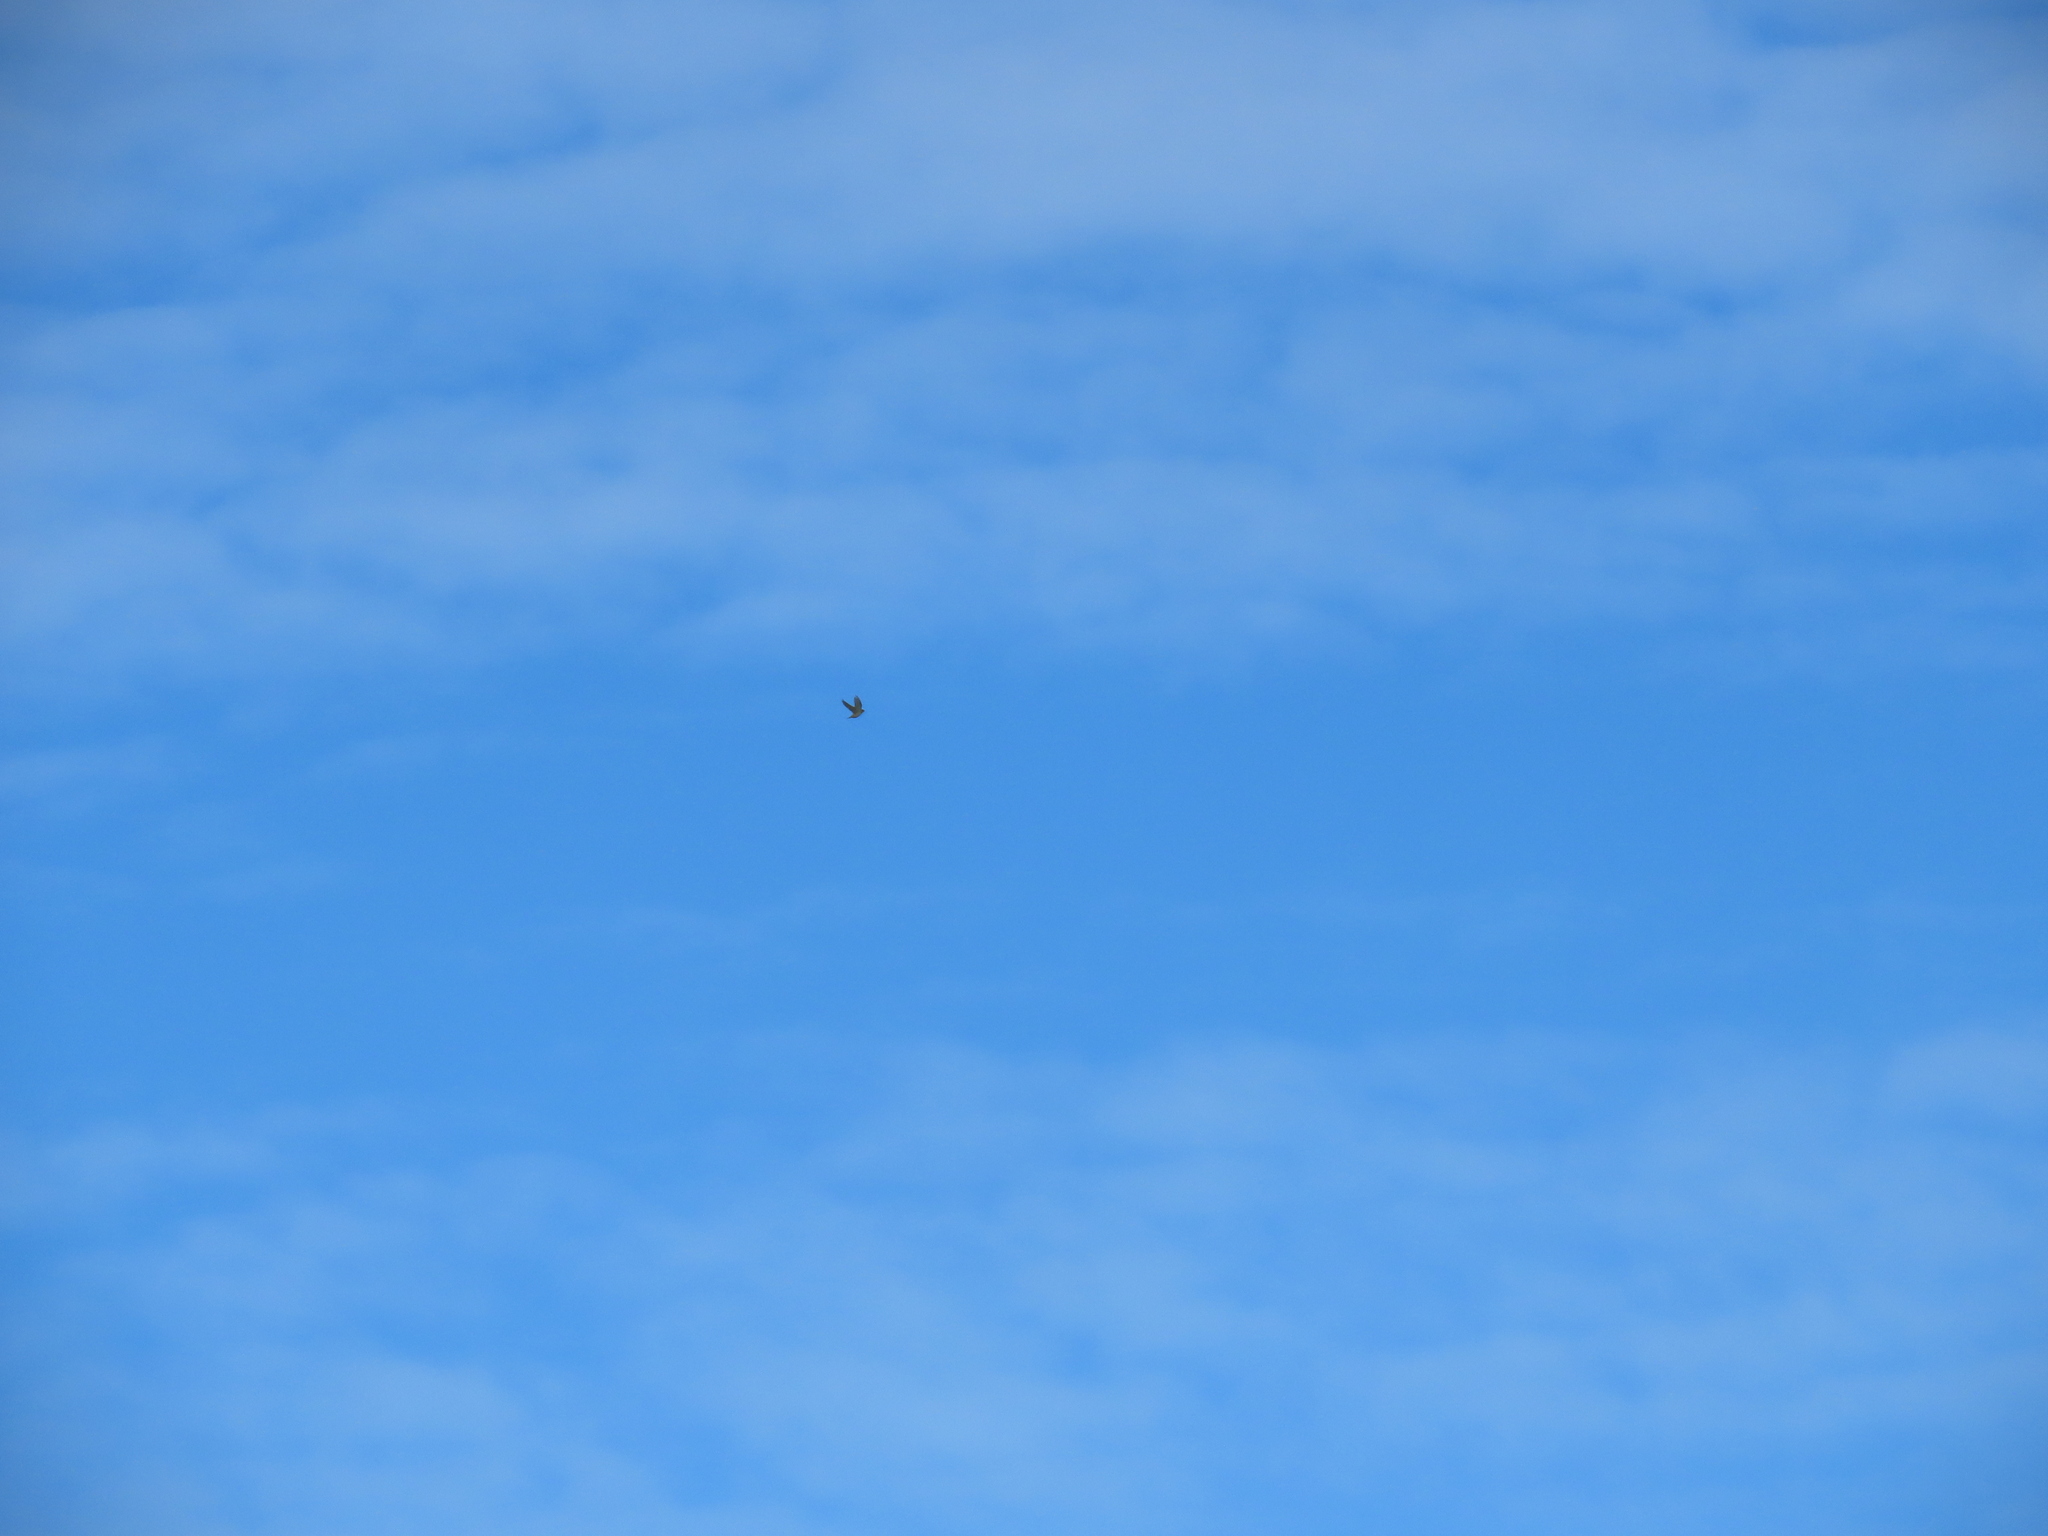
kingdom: Animalia
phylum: Chordata
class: Aves
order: Falconiformes
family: Falconidae
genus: Falco
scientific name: Falco peregrinus
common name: Peregrine falcon
